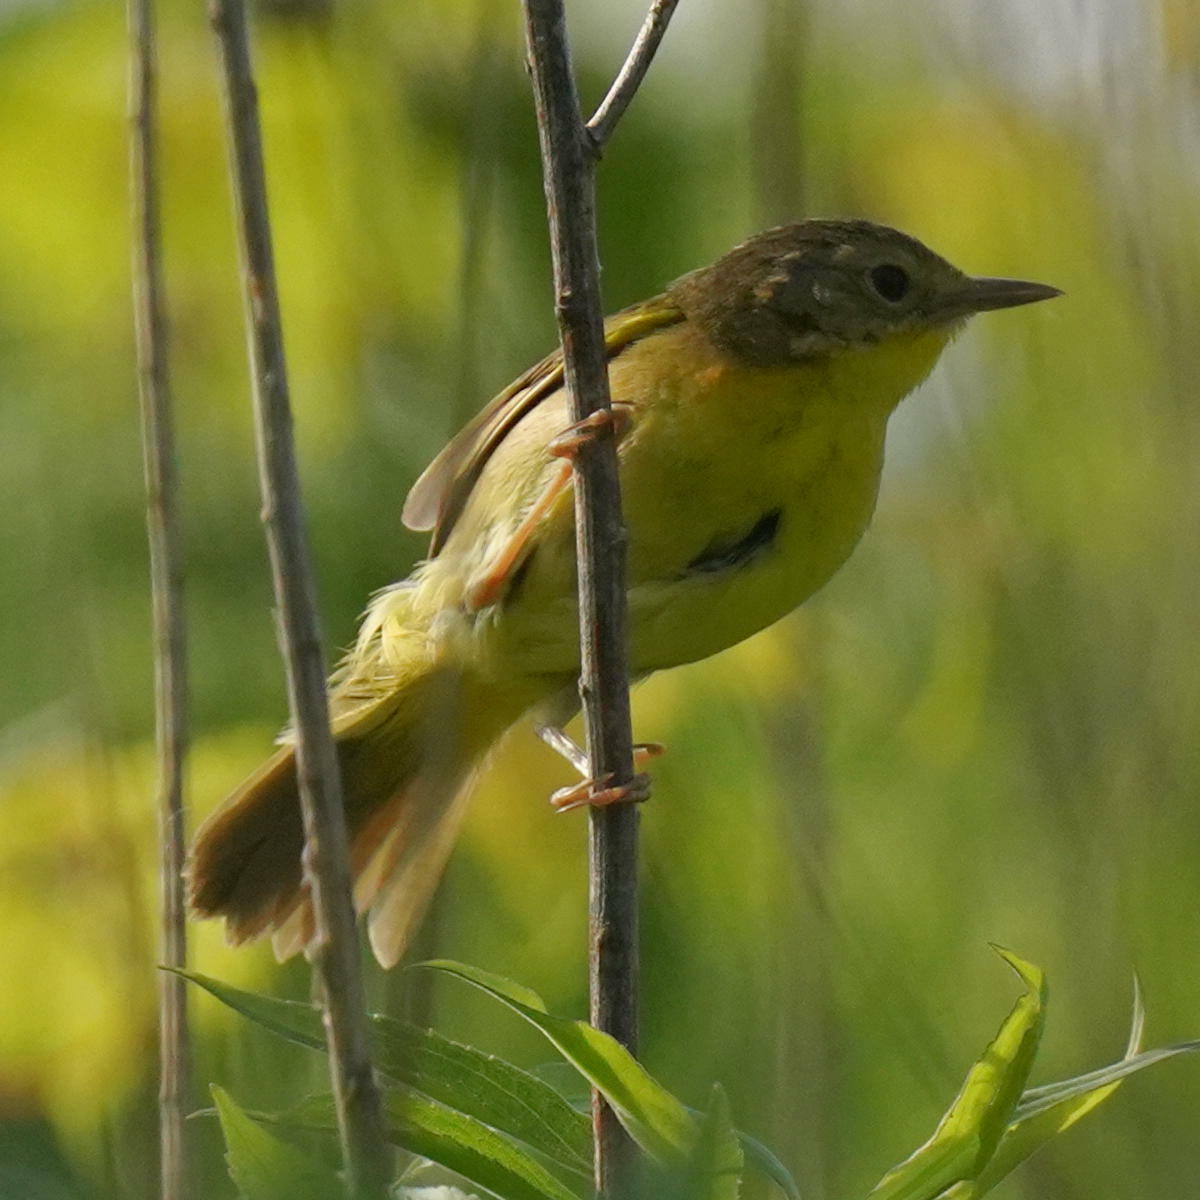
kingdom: Animalia
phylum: Chordata
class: Aves
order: Passeriformes
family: Parulidae
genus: Geothlypis
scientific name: Geothlypis trichas
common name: Common yellowthroat
